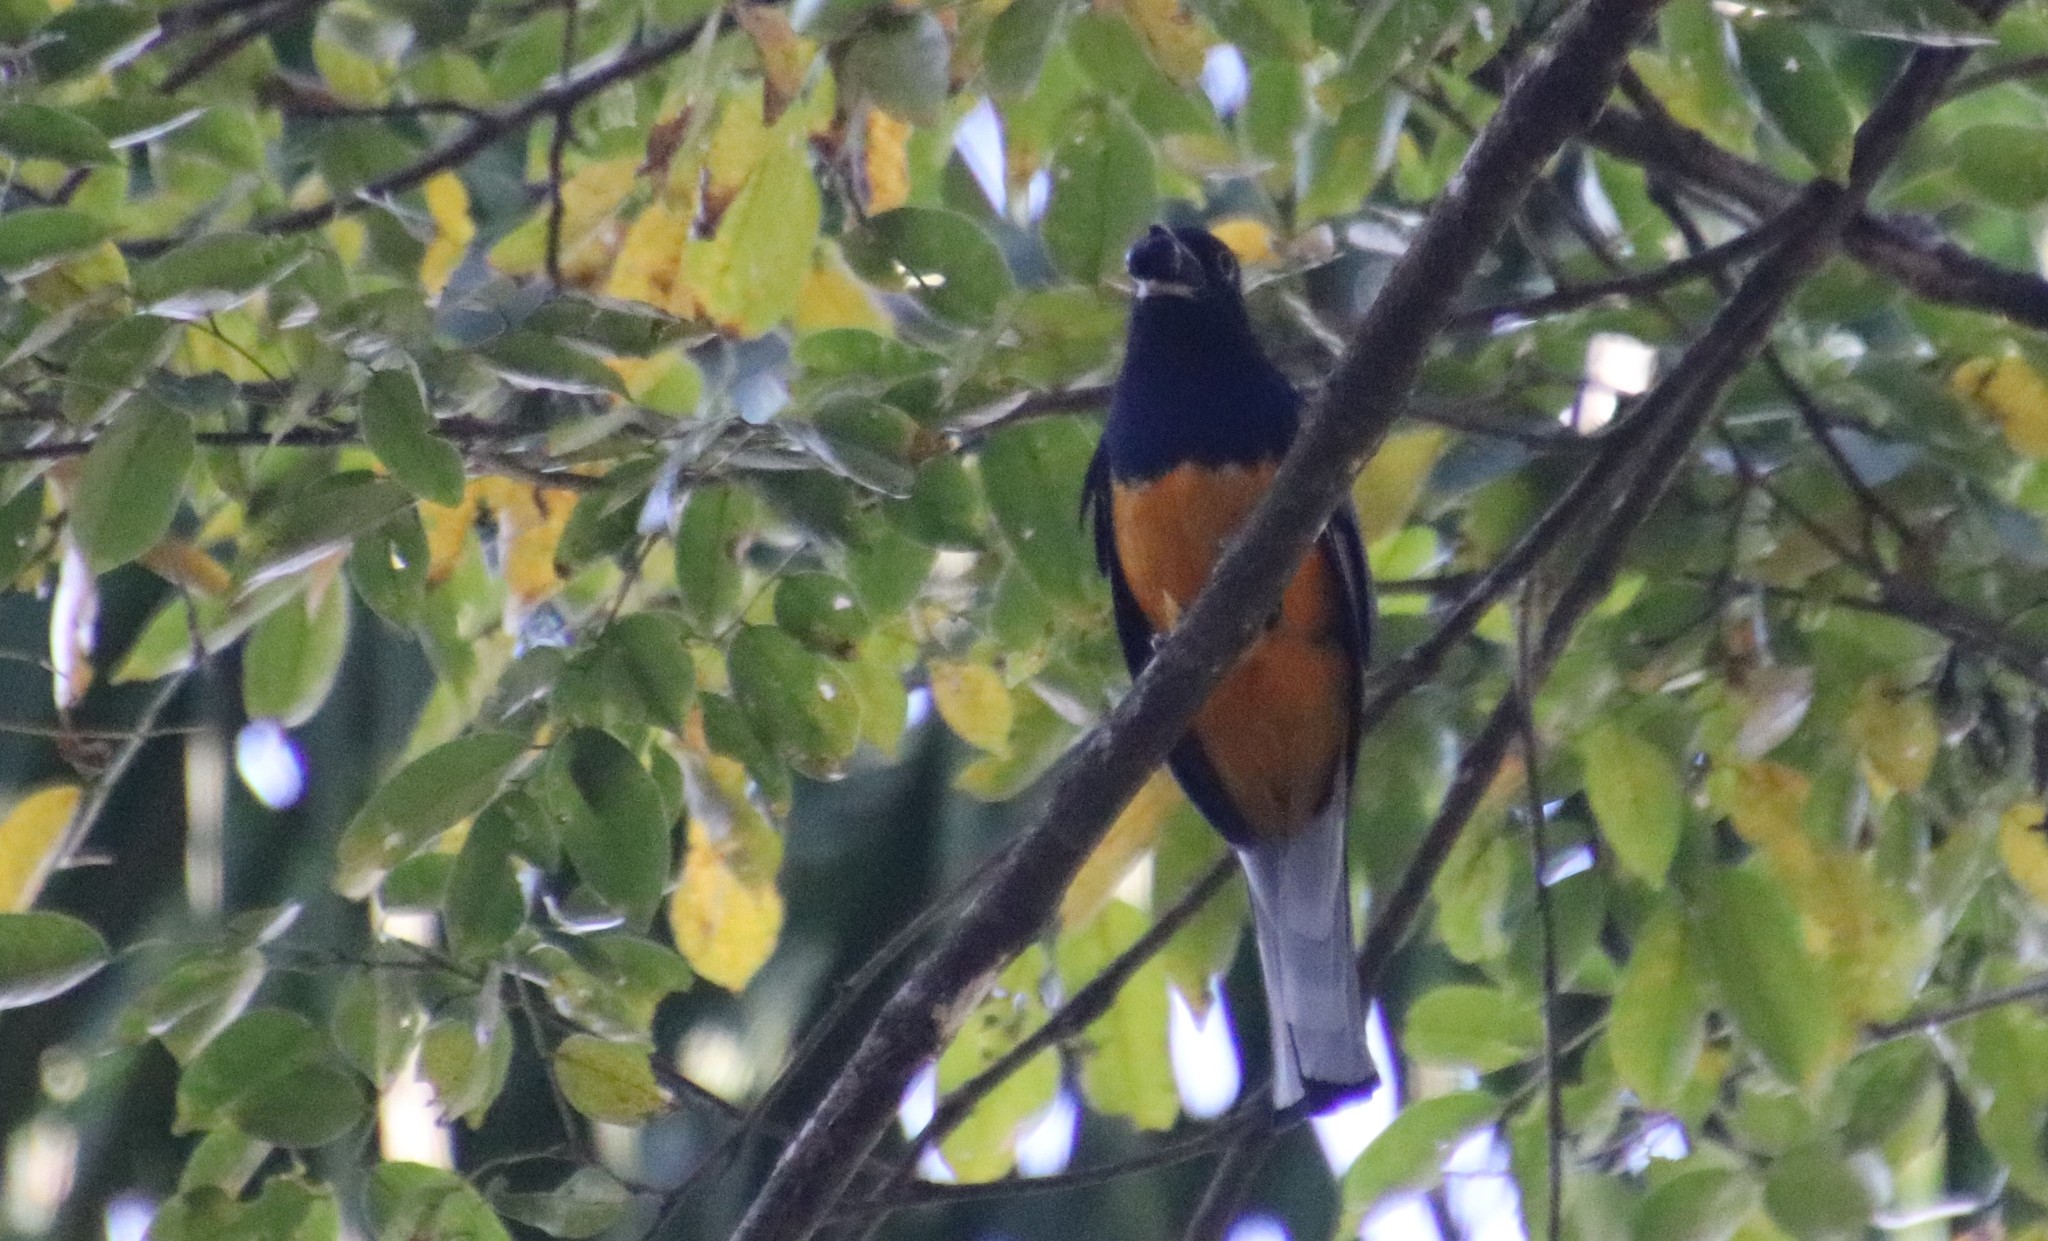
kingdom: Animalia
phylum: Chordata
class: Aves
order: Trogoniformes
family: Trogonidae
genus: Trogon
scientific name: Trogon surrucura
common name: Surucua trogon
